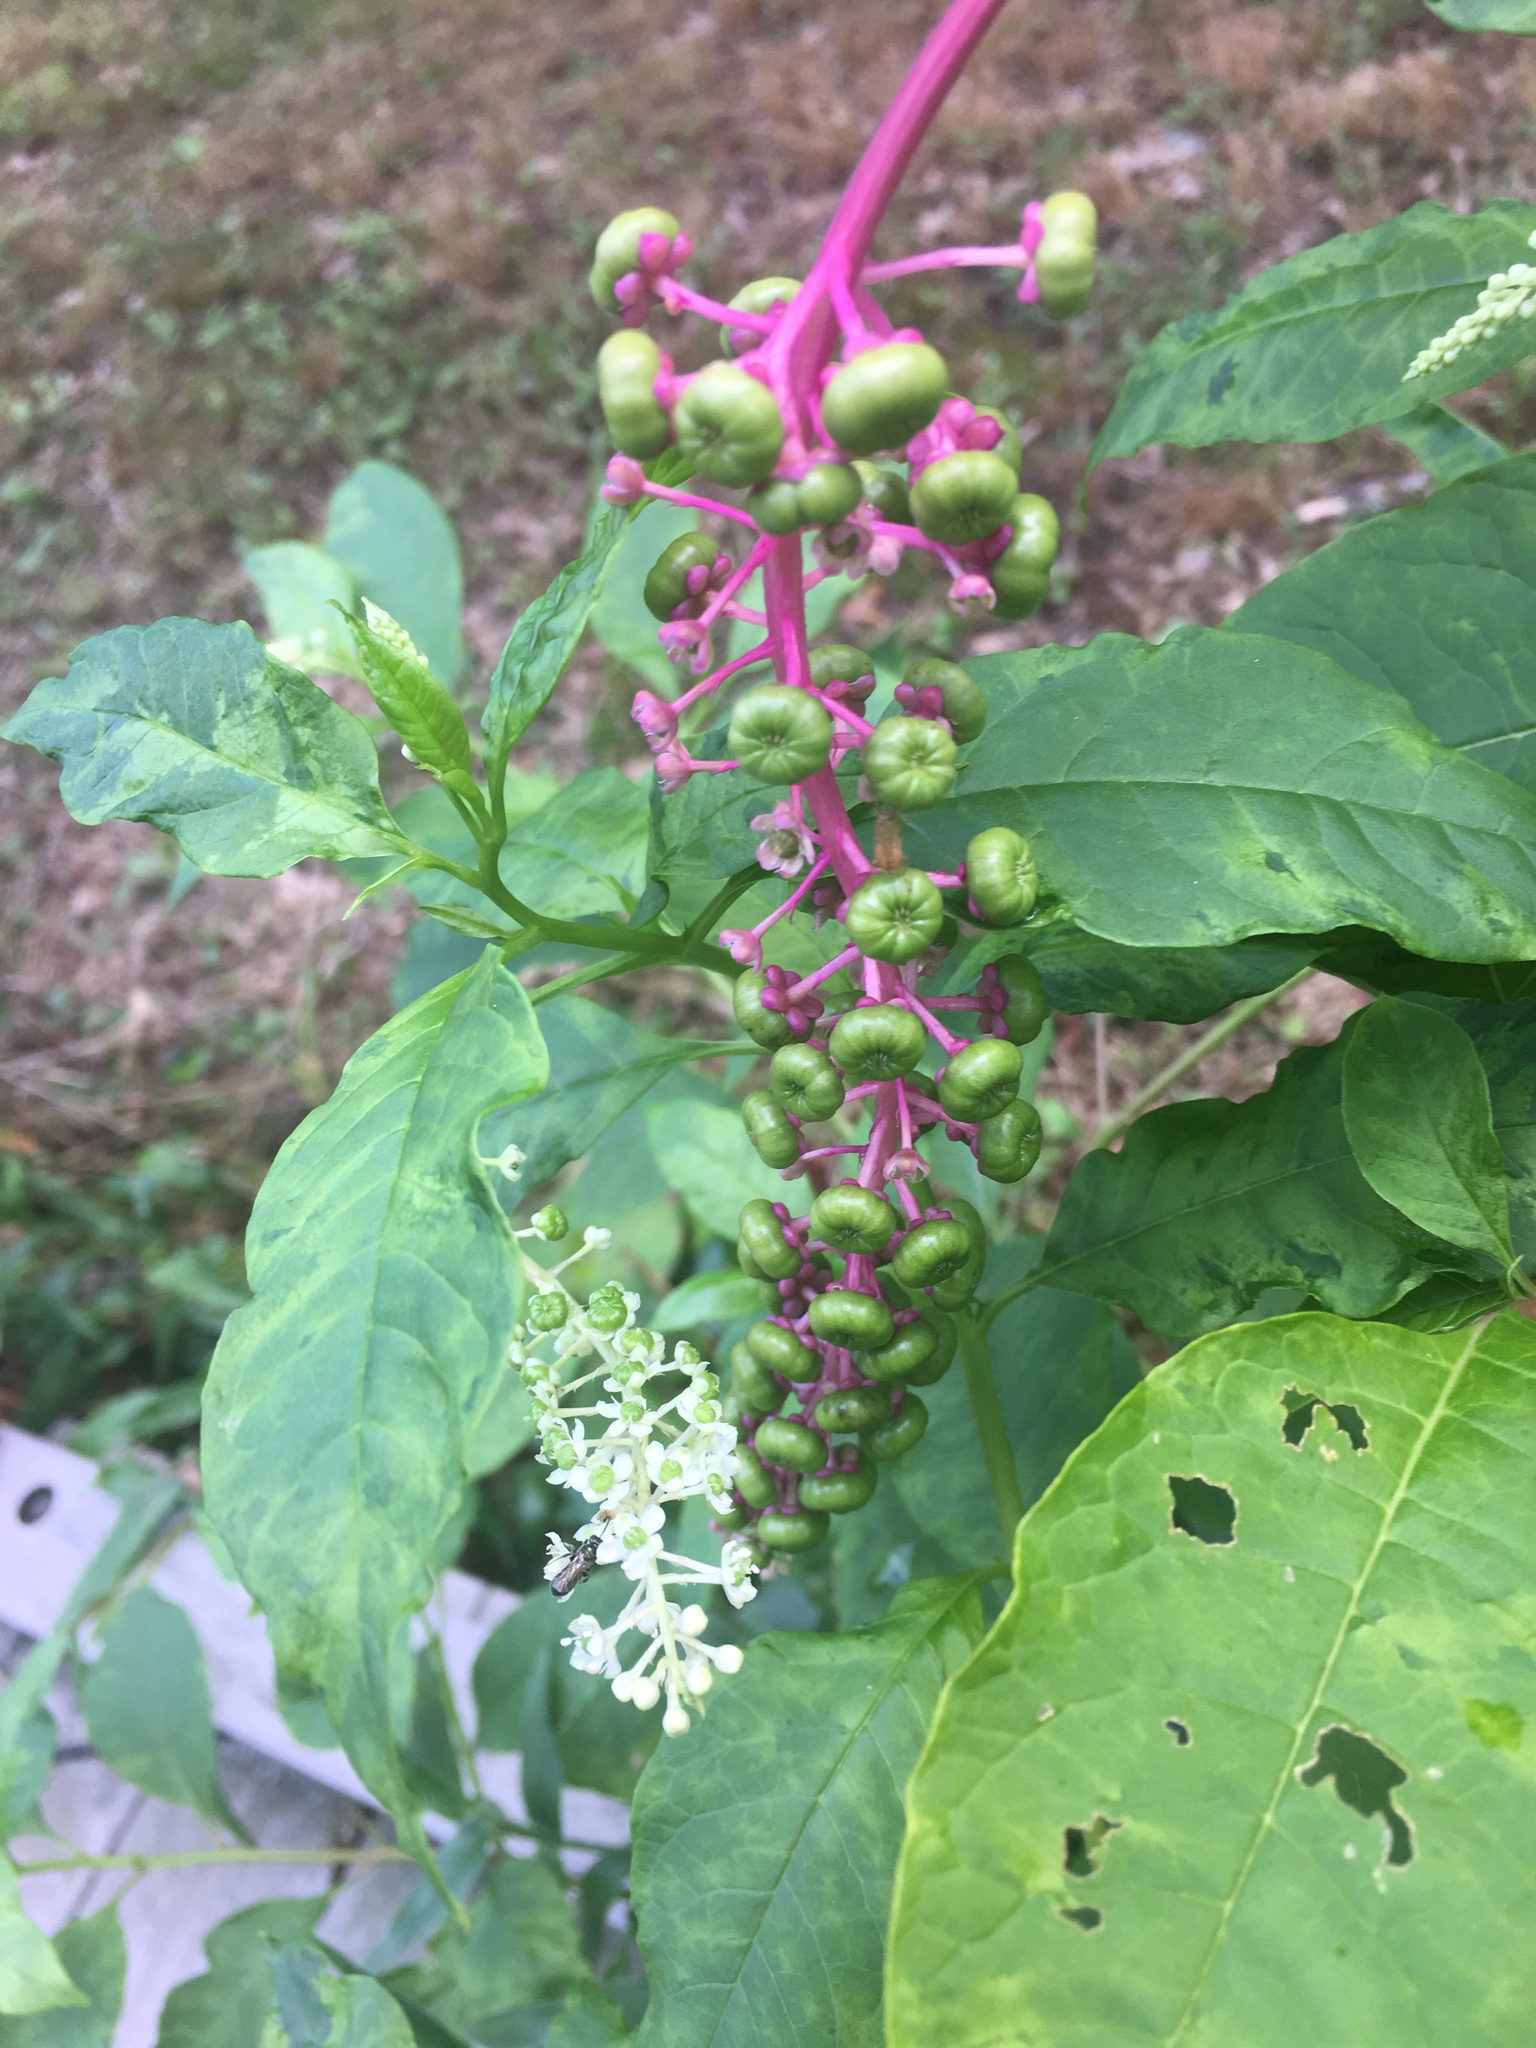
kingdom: Plantae
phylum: Tracheophyta
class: Magnoliopsida
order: Caryophyllales
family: Phytolaccaceae
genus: Phytolacca
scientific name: Phytolacca americana
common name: American pokeweed
